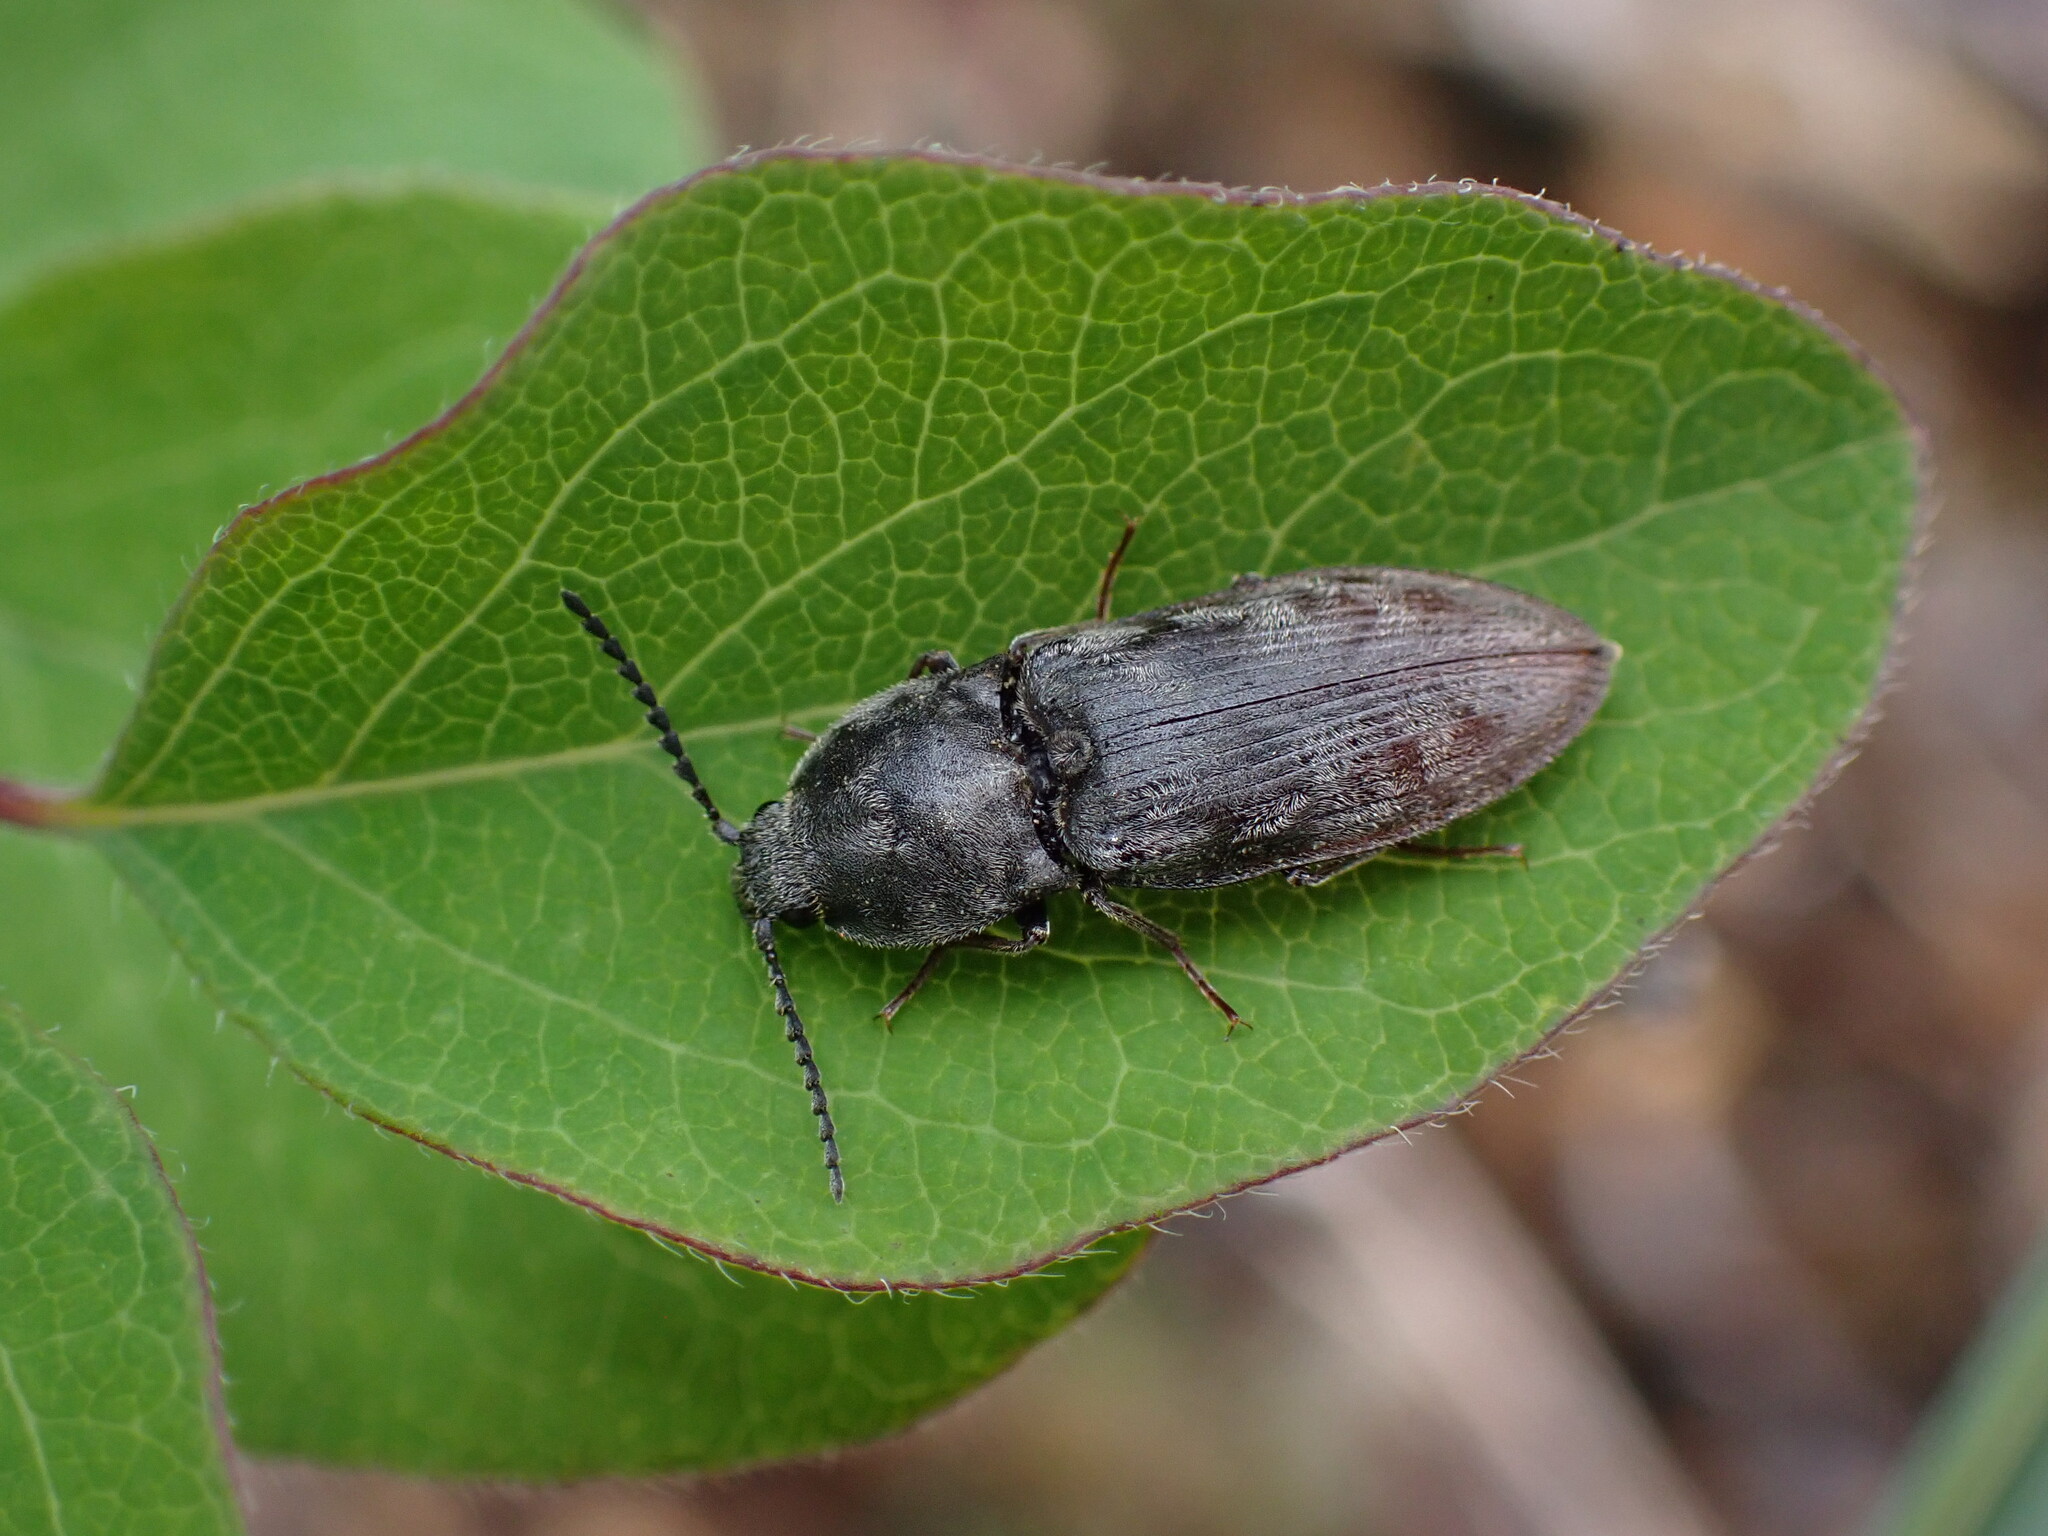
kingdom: Animalia
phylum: Arthropoda
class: Insecta
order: Coleoptera
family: Elateridae
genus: Prosternon
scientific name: Prosternon viduum
